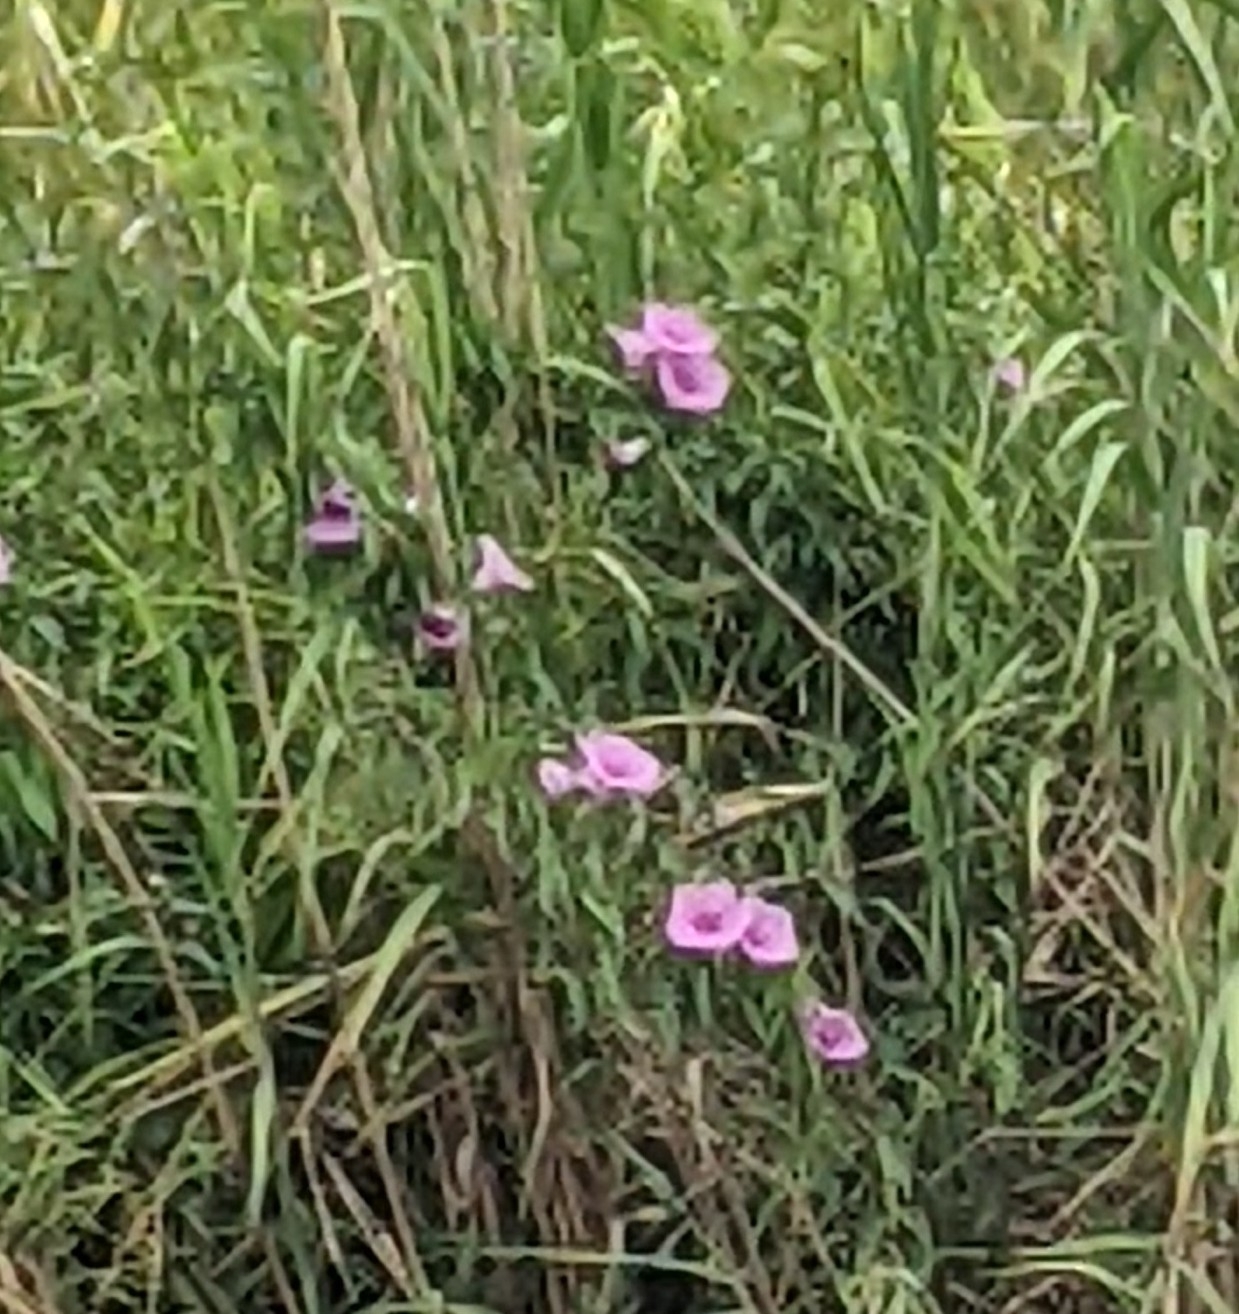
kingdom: Plantae
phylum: Tracheophyta
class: Magnoliopsida
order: Solanales
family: Convolvulaceae
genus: Ipomoea
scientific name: Ipomoea sagittata
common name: Saltmarsh morning glory
